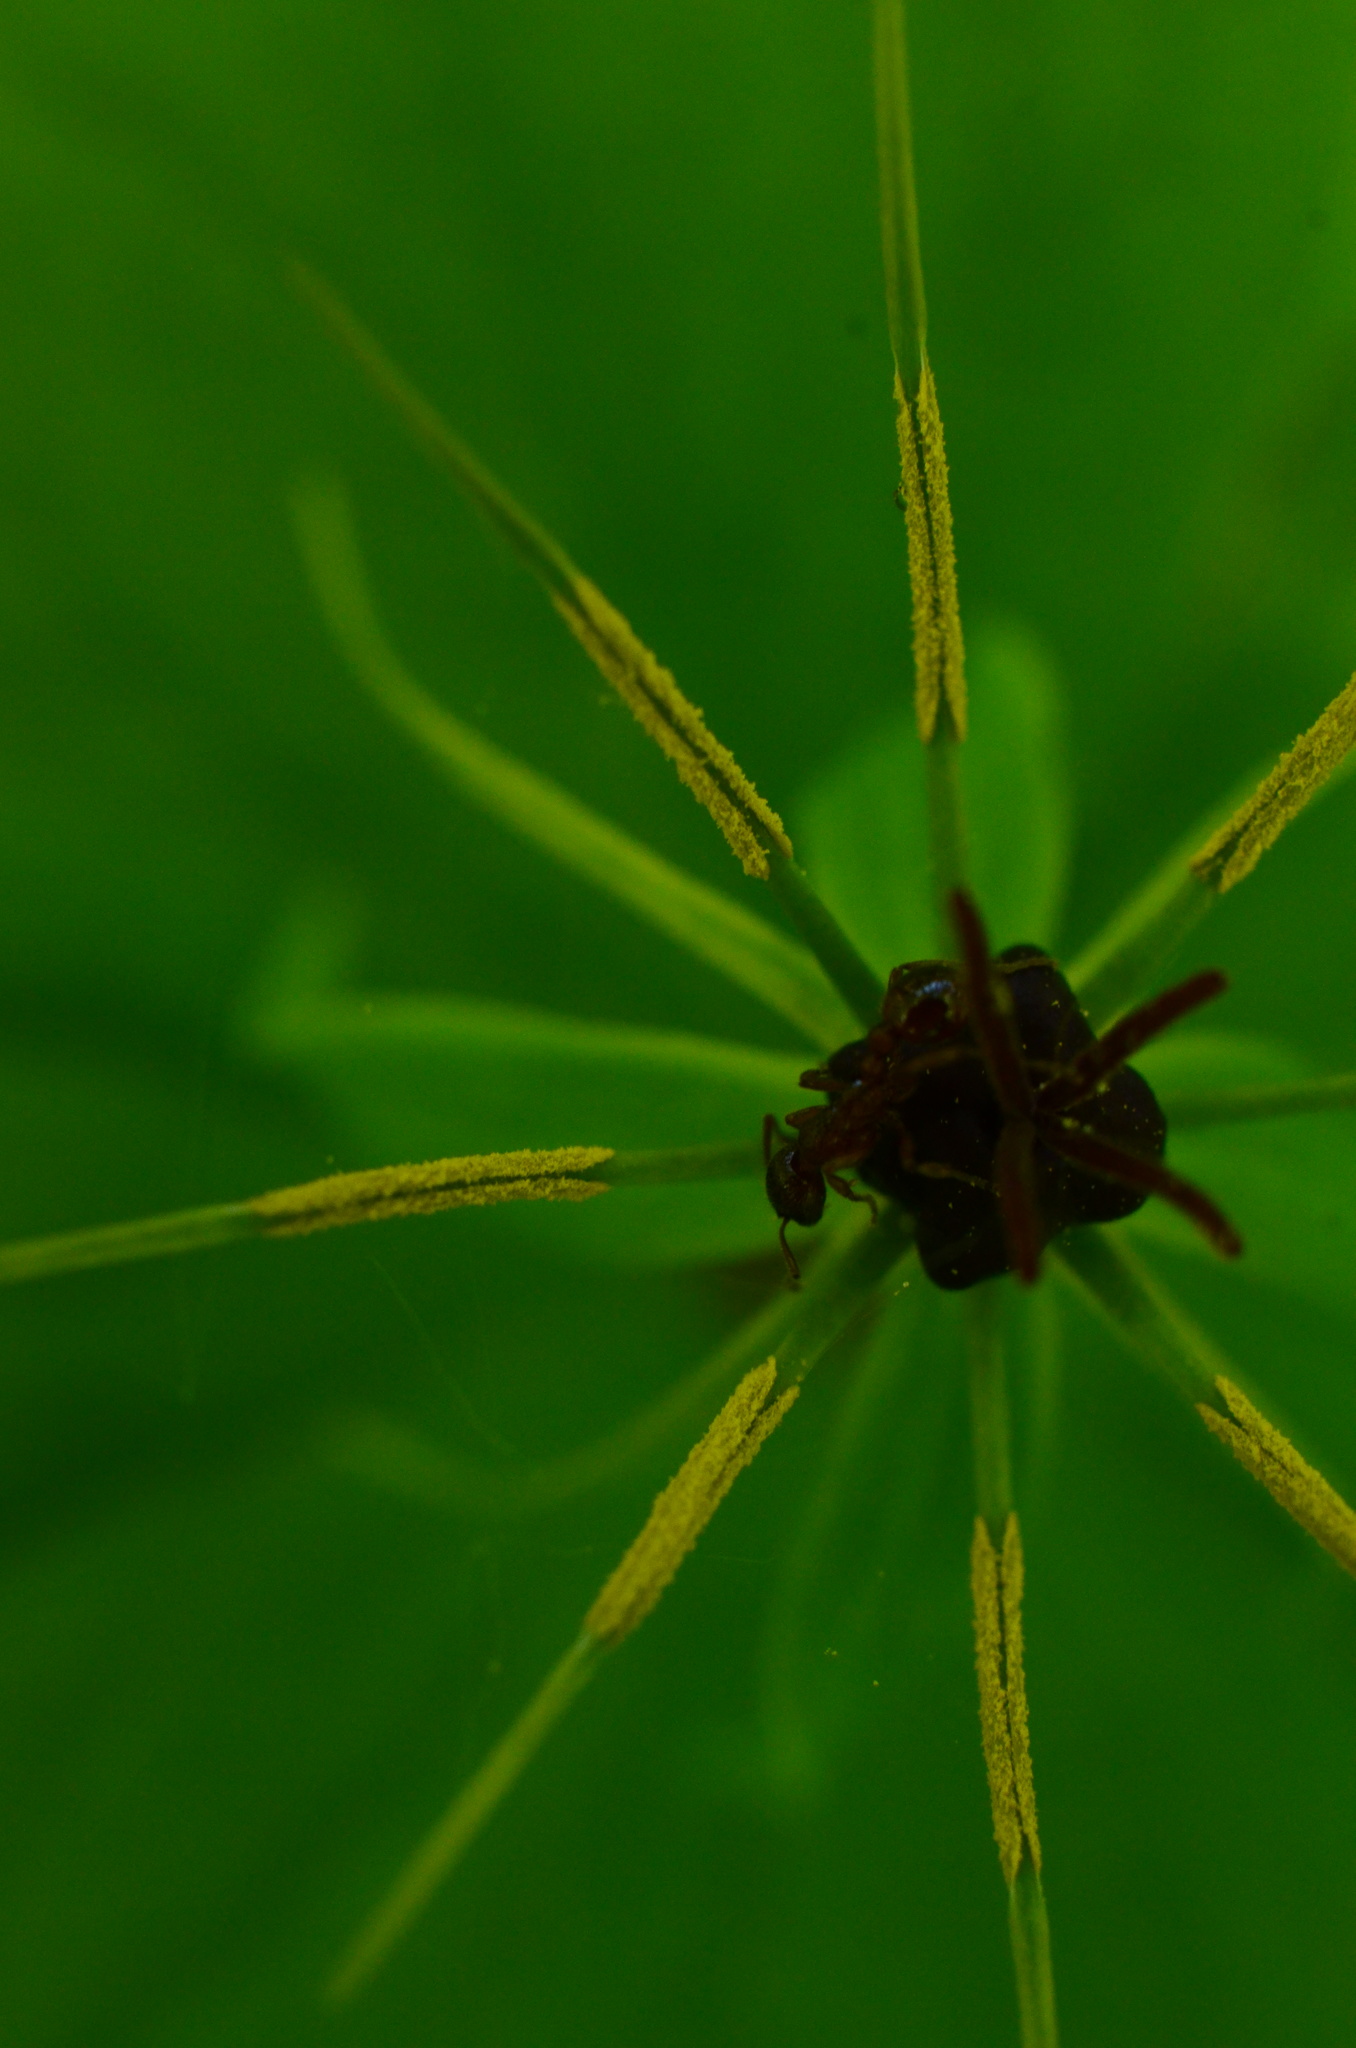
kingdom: Plantae
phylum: Tracheophyta
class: Liliopsida
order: Liliales
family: Melanthiaceae
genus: Paris
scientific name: Paris quadrifolia
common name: Herb-paris
